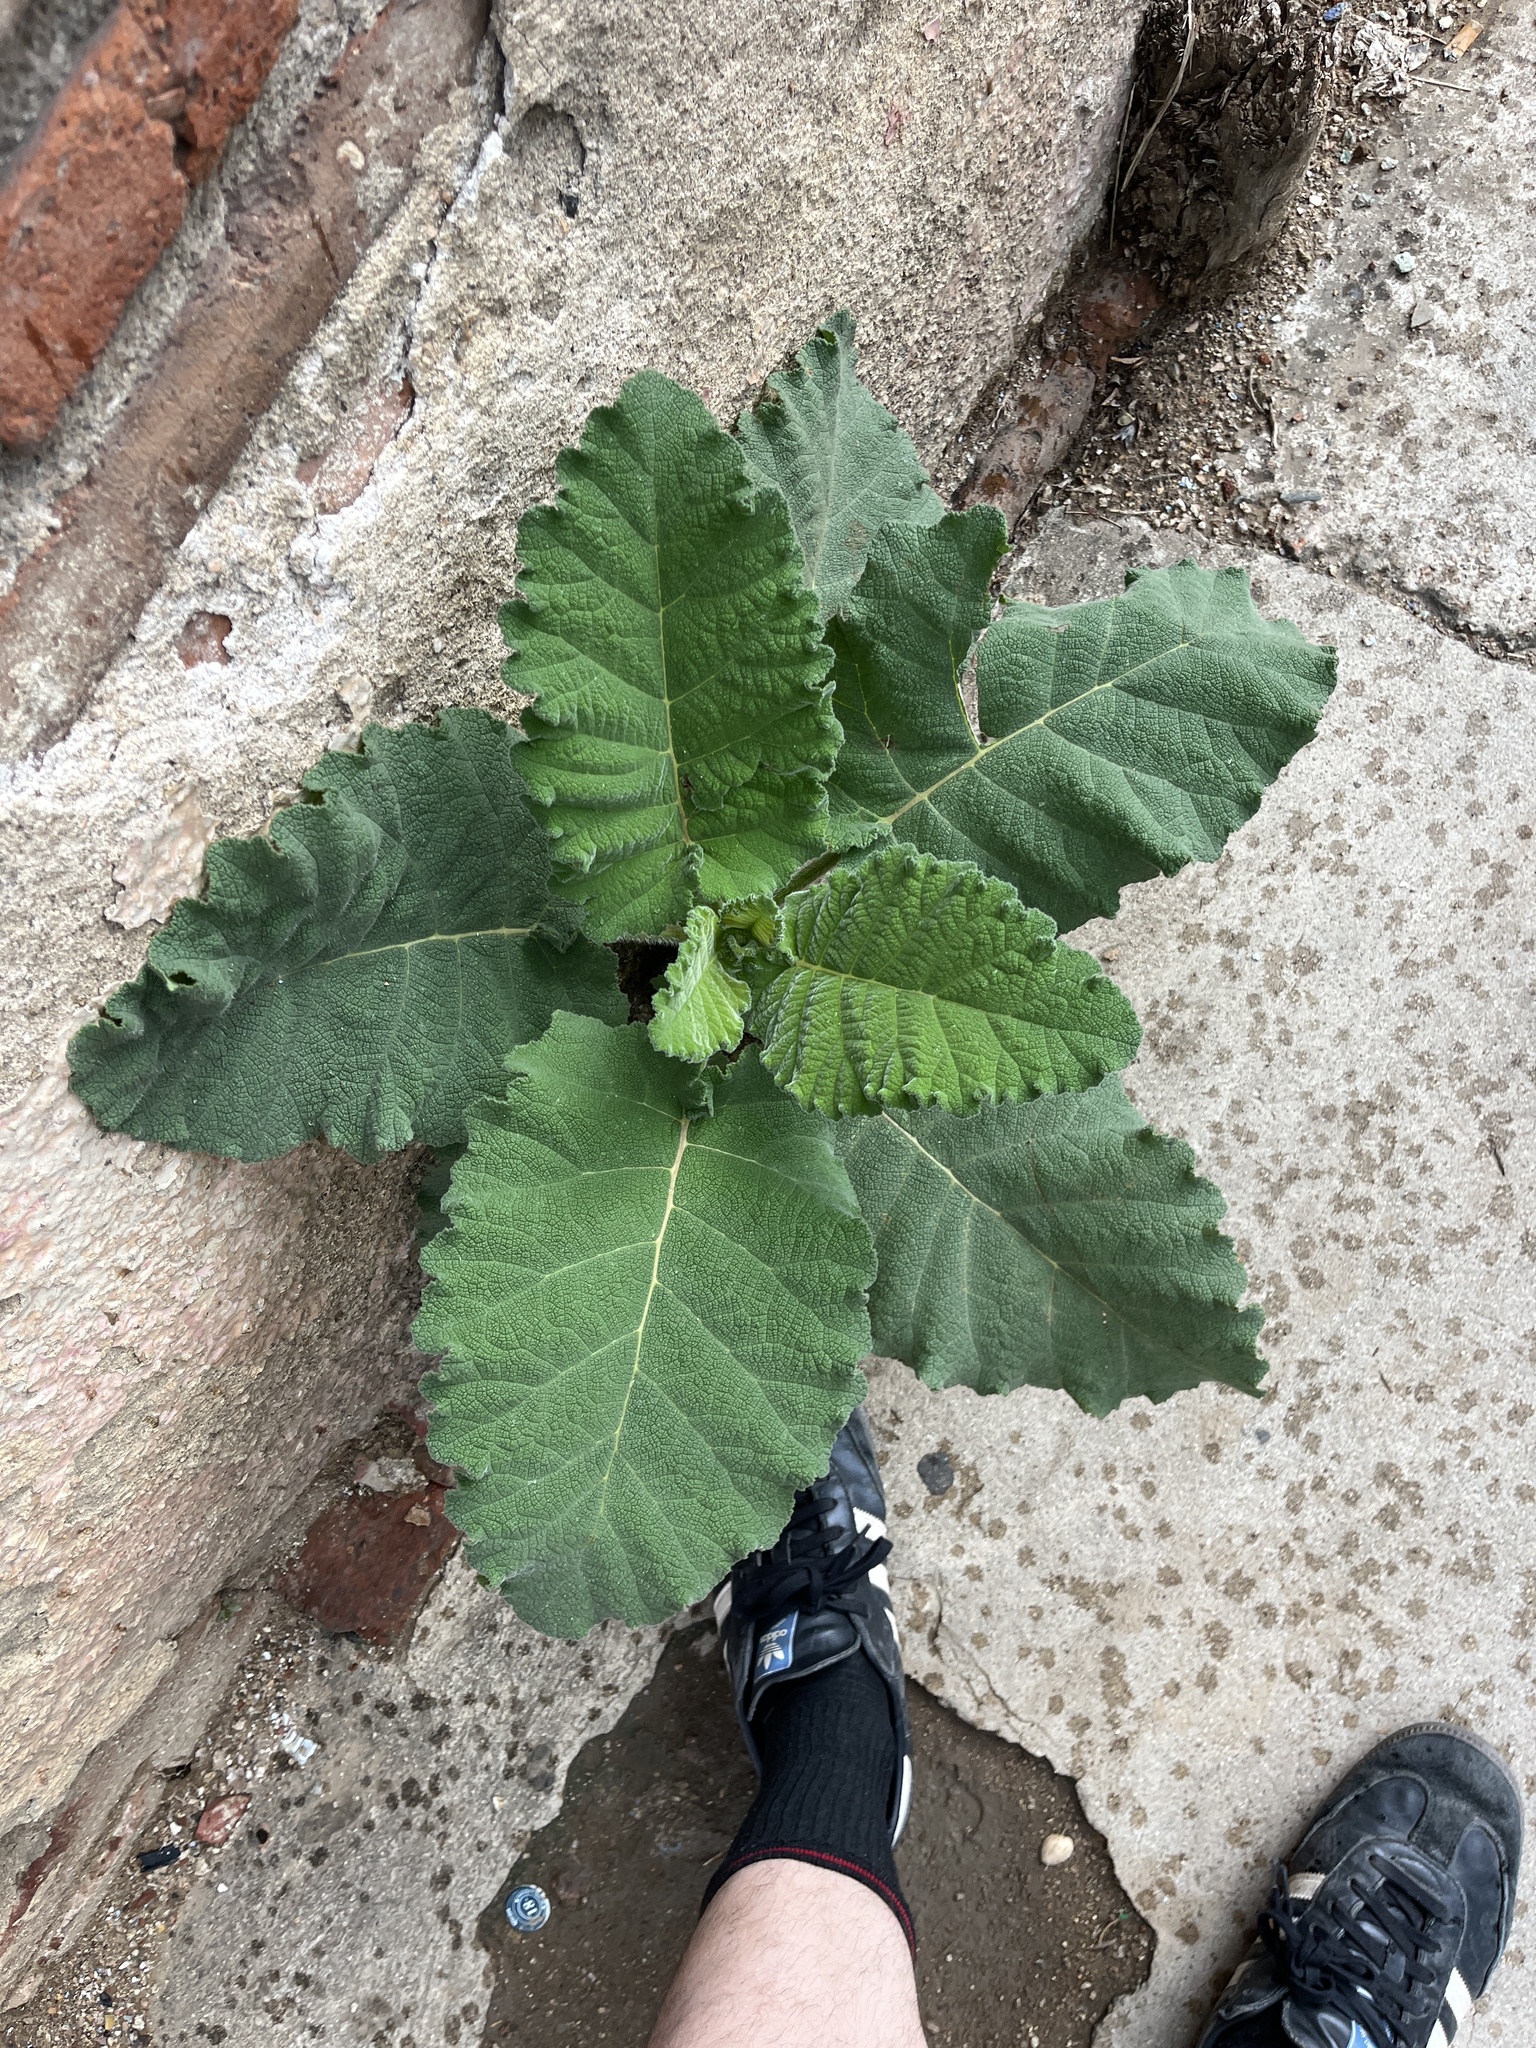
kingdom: Plantae
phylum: Tracheophyta
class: Magnoliopsida
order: Boraginales
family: Namaceae
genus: Wigandia
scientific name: Wigandia urens
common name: Caracus wigandia
